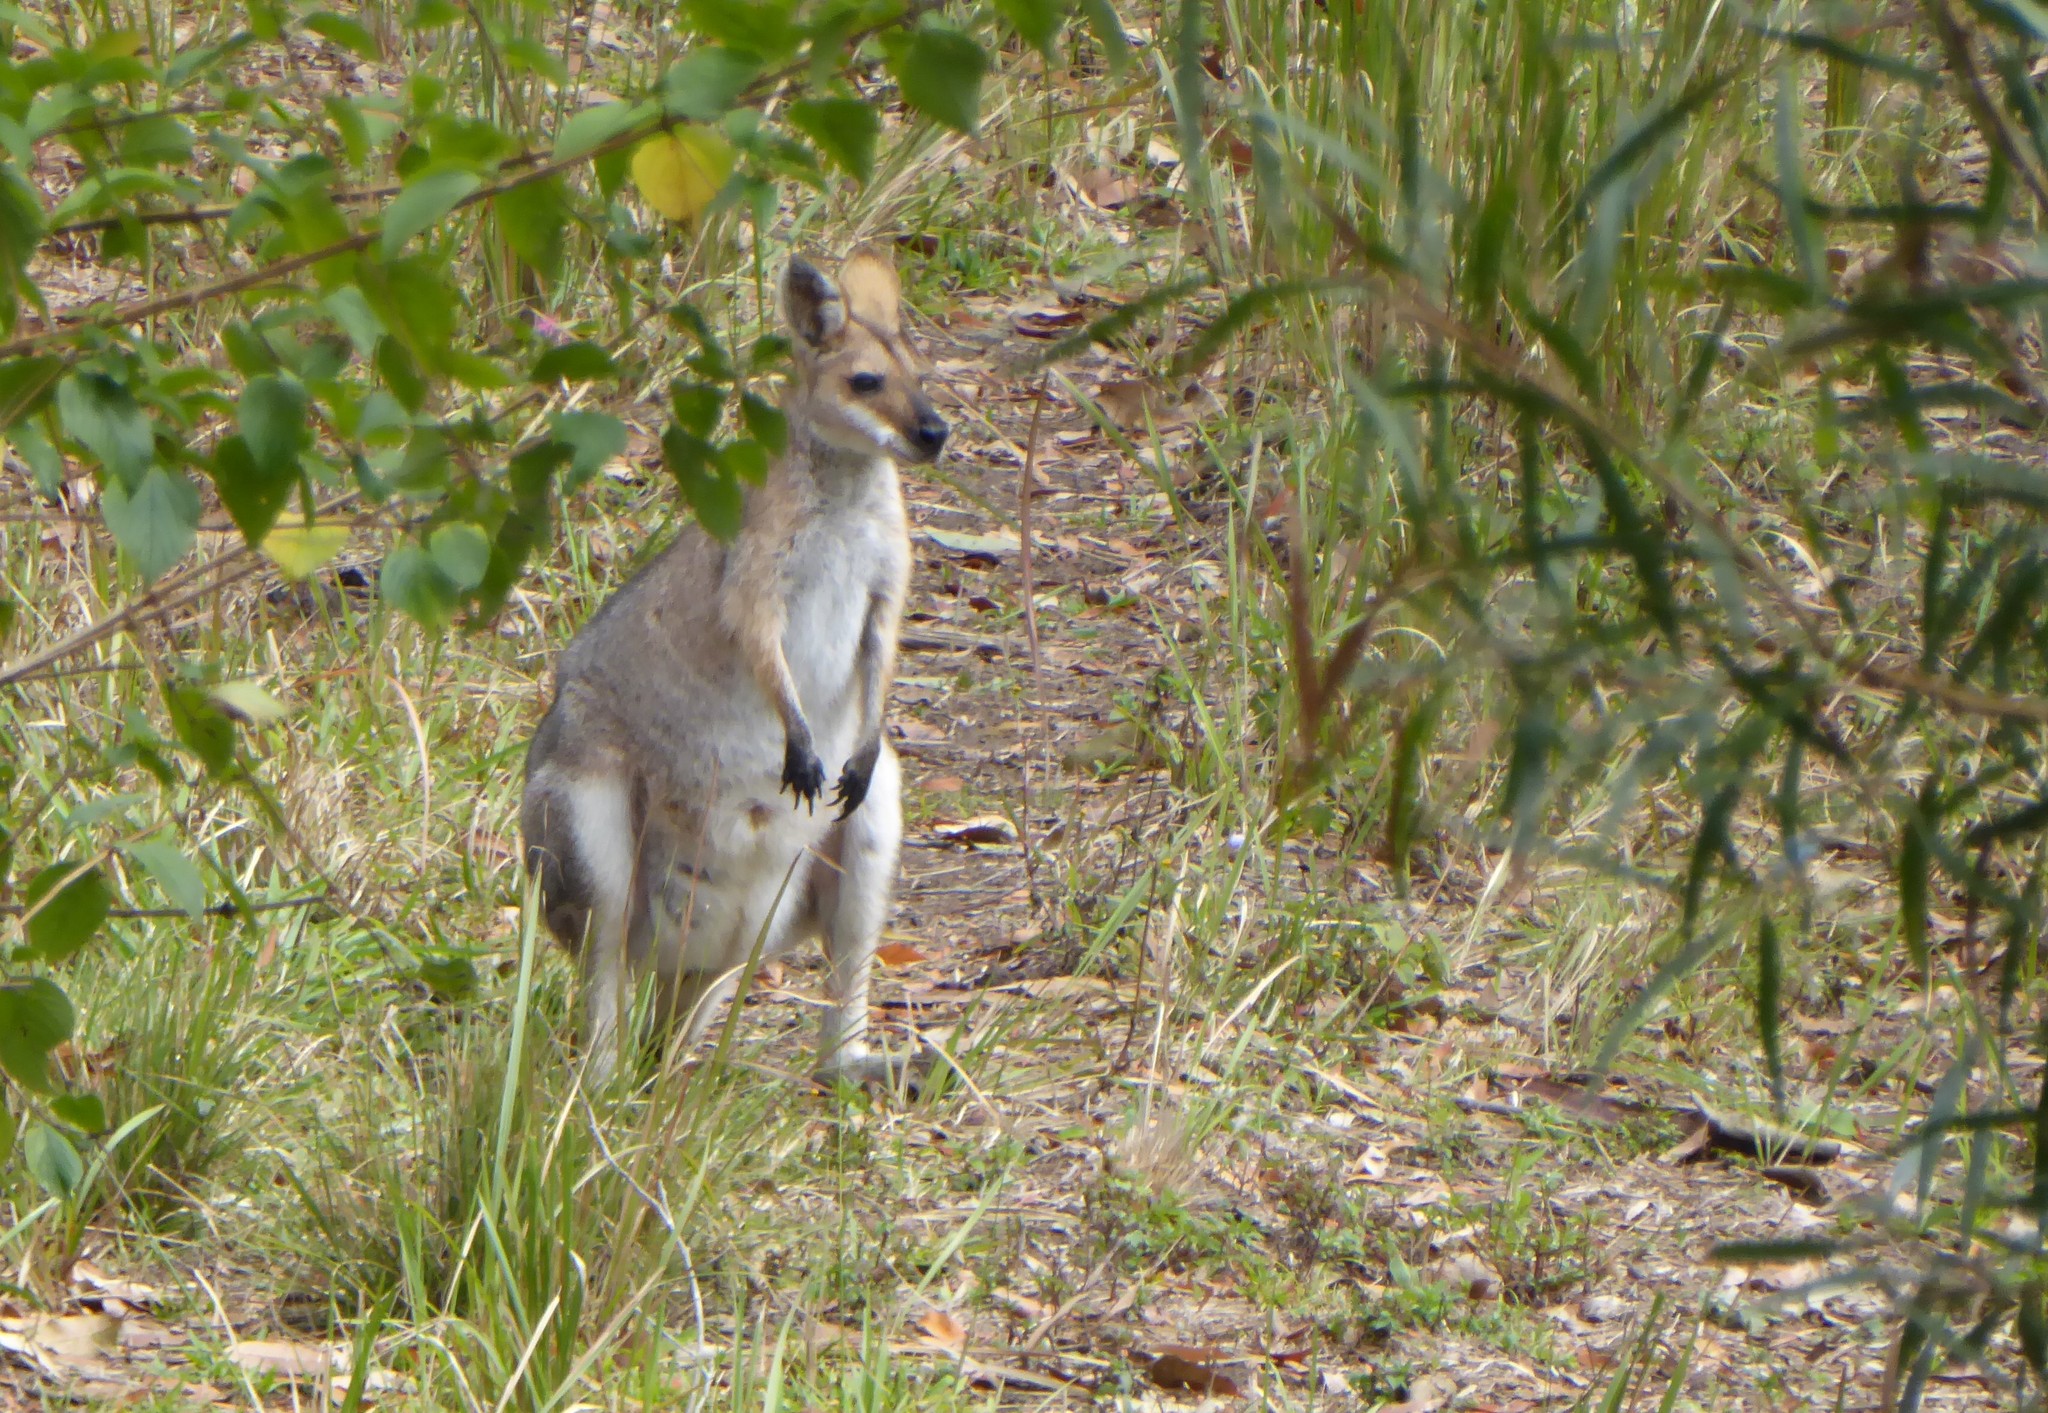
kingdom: Animalia
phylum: Chordata
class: Mammalia
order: Diprotodontia
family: Macropodidae
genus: Notamacropus
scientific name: Notamacropus rufogriseus
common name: Red-necked wallaby
